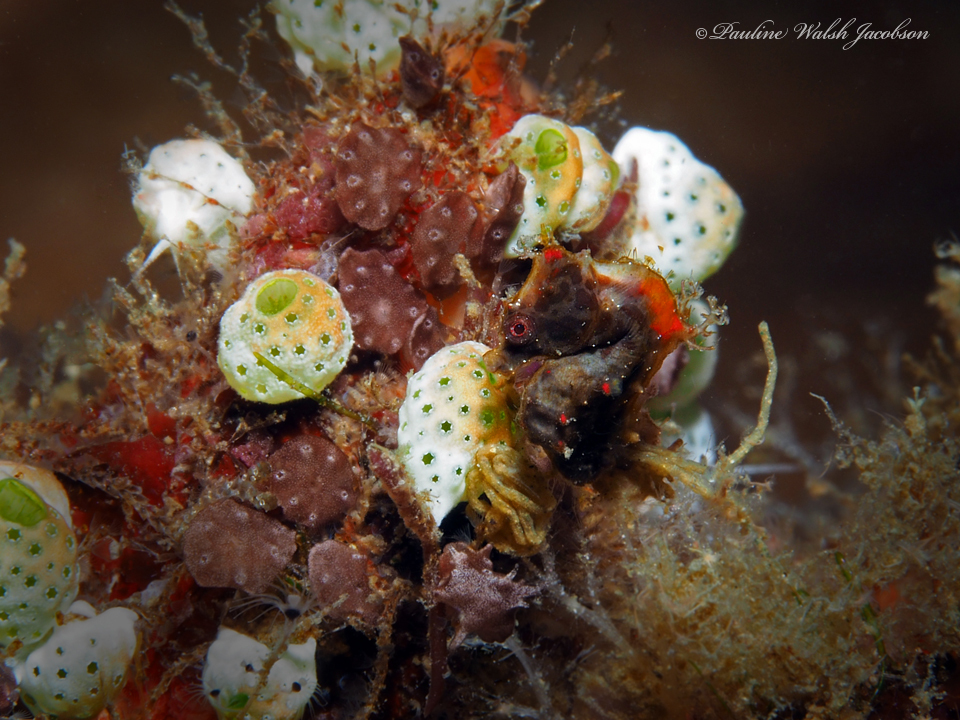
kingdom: Animalia
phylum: Chordata
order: Syngnathiformes
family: Syngnathidae
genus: Hippocampus
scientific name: Hippocampus pontohi
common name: Pontoh`s pygmy seahorse
